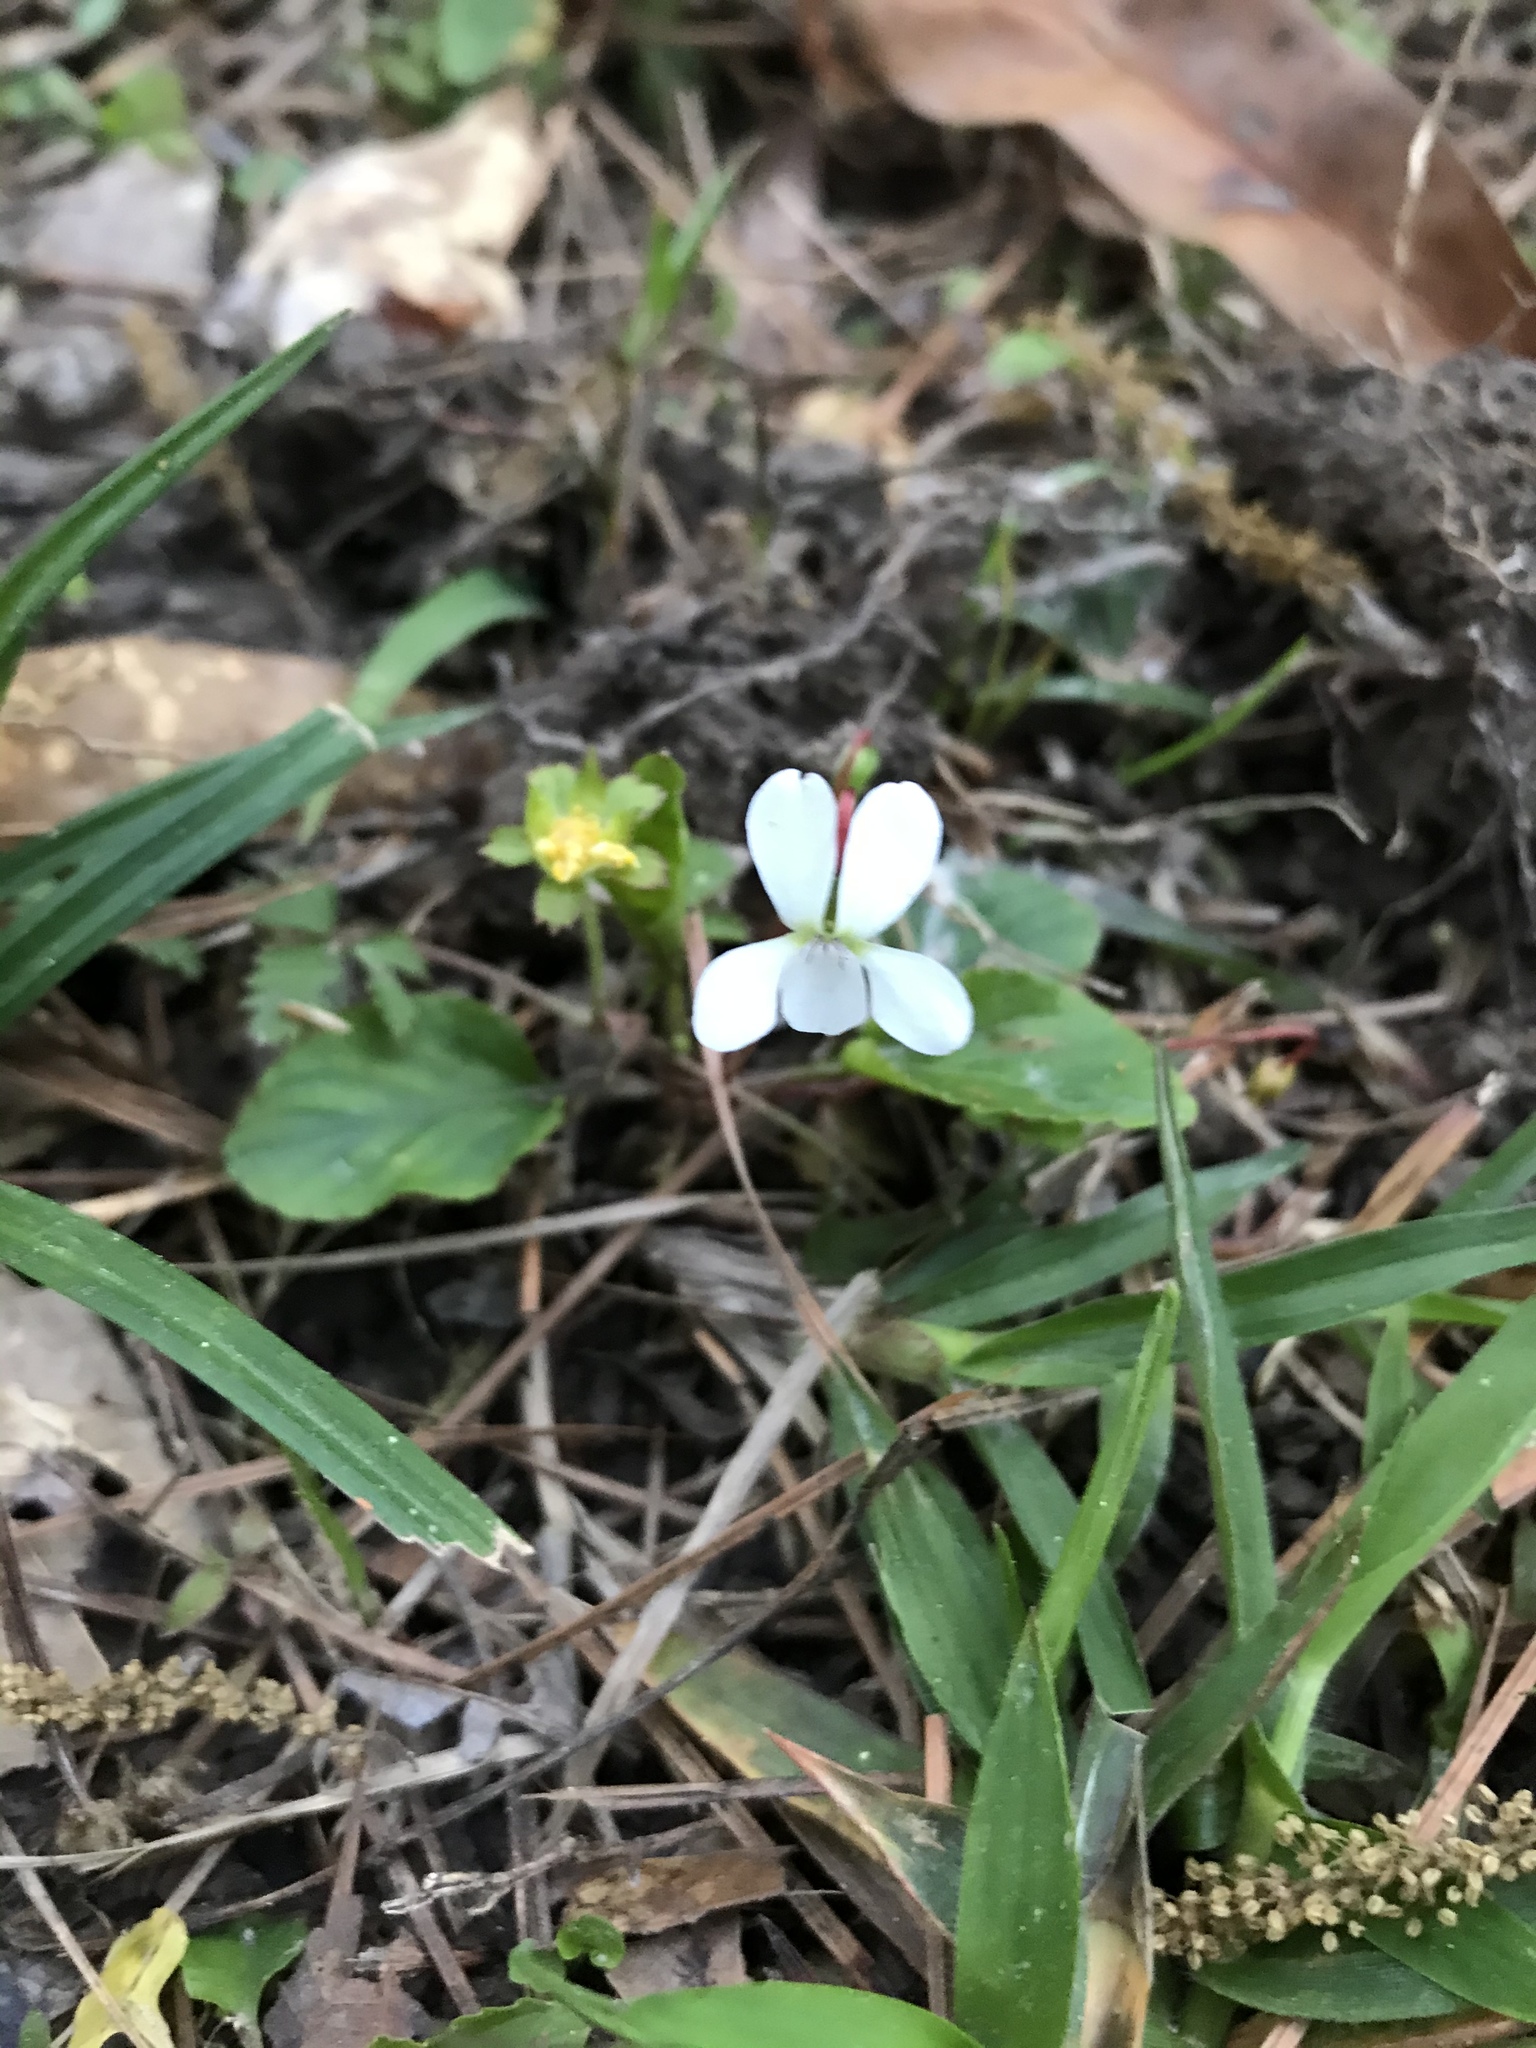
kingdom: Plantae
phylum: Tracheophyta
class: Magnoliopsida
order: Malpighiales
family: Violaceae
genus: Viola
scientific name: Viola primulifolia
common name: Primrose-leaf violet
